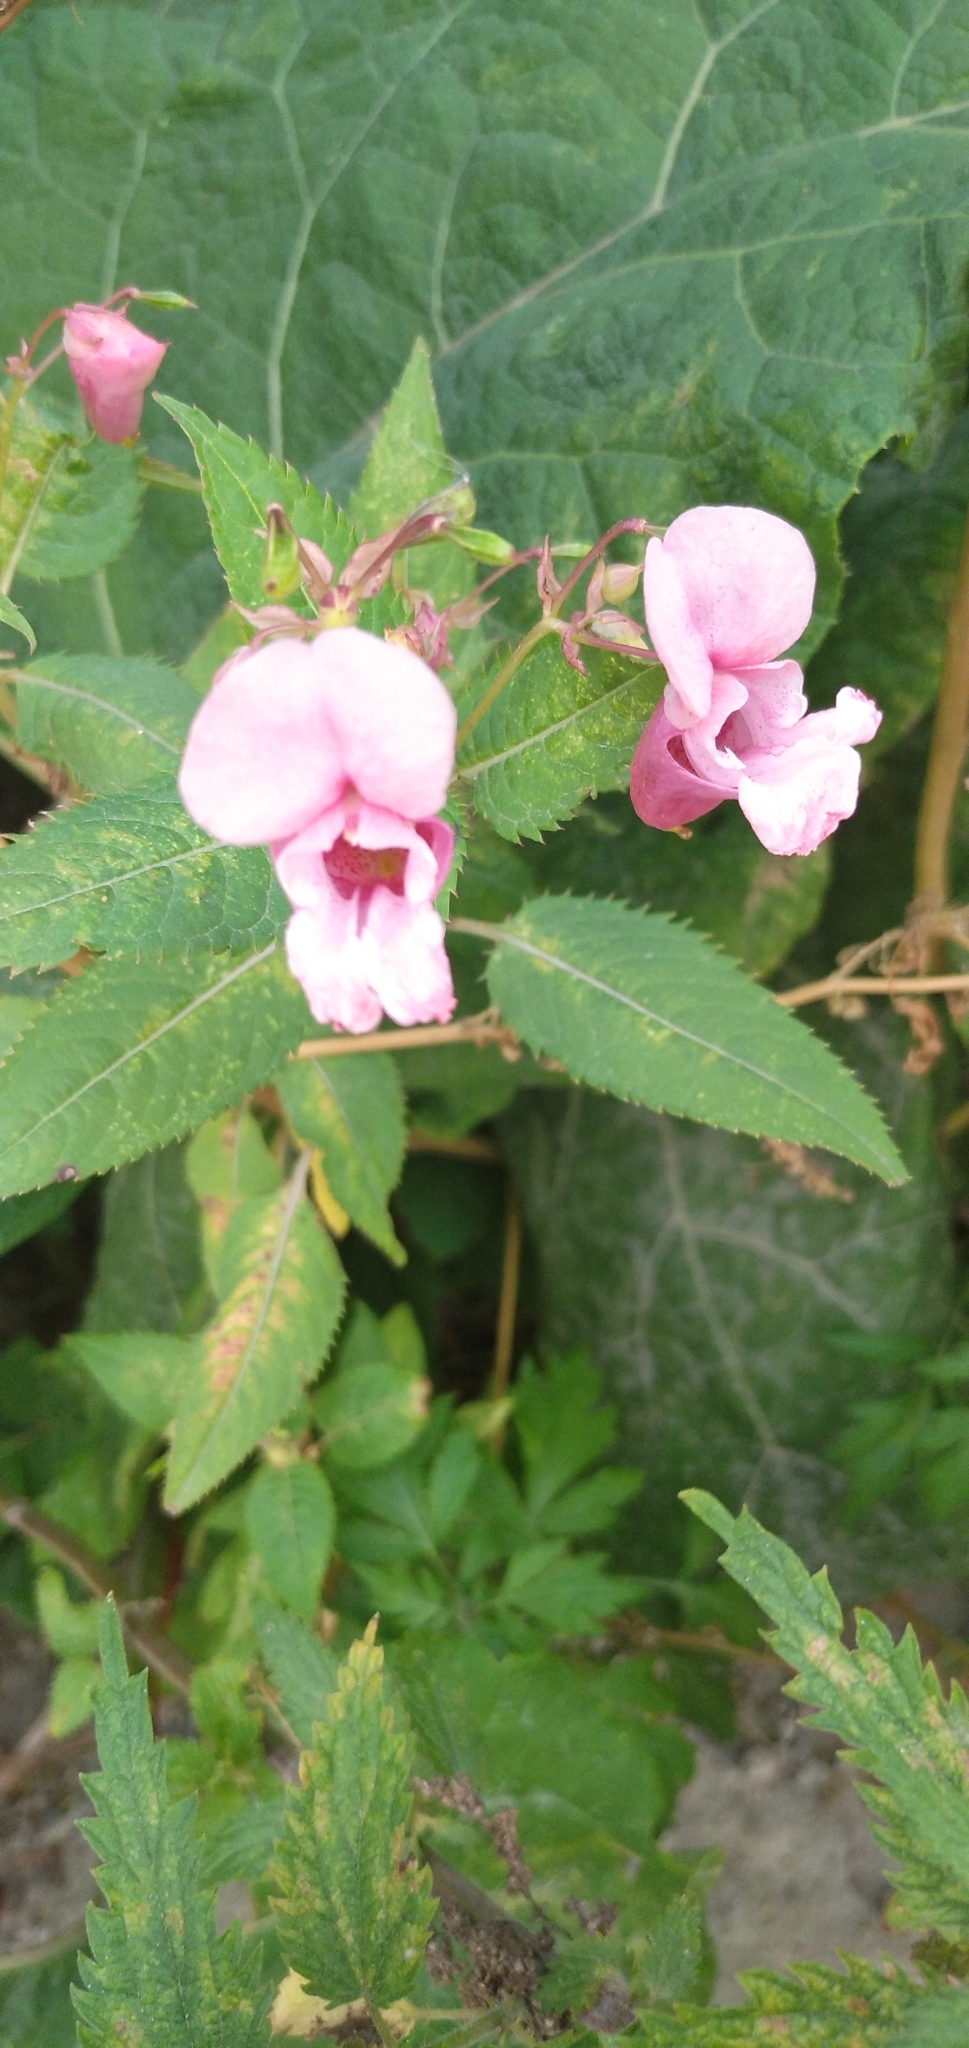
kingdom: Plantae
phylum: Tracheophyta
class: Magnoliopsida
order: Ericales
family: Balsaminaceae
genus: Impatiens
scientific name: Impatiens glandulifera
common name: Himalayan balsam
